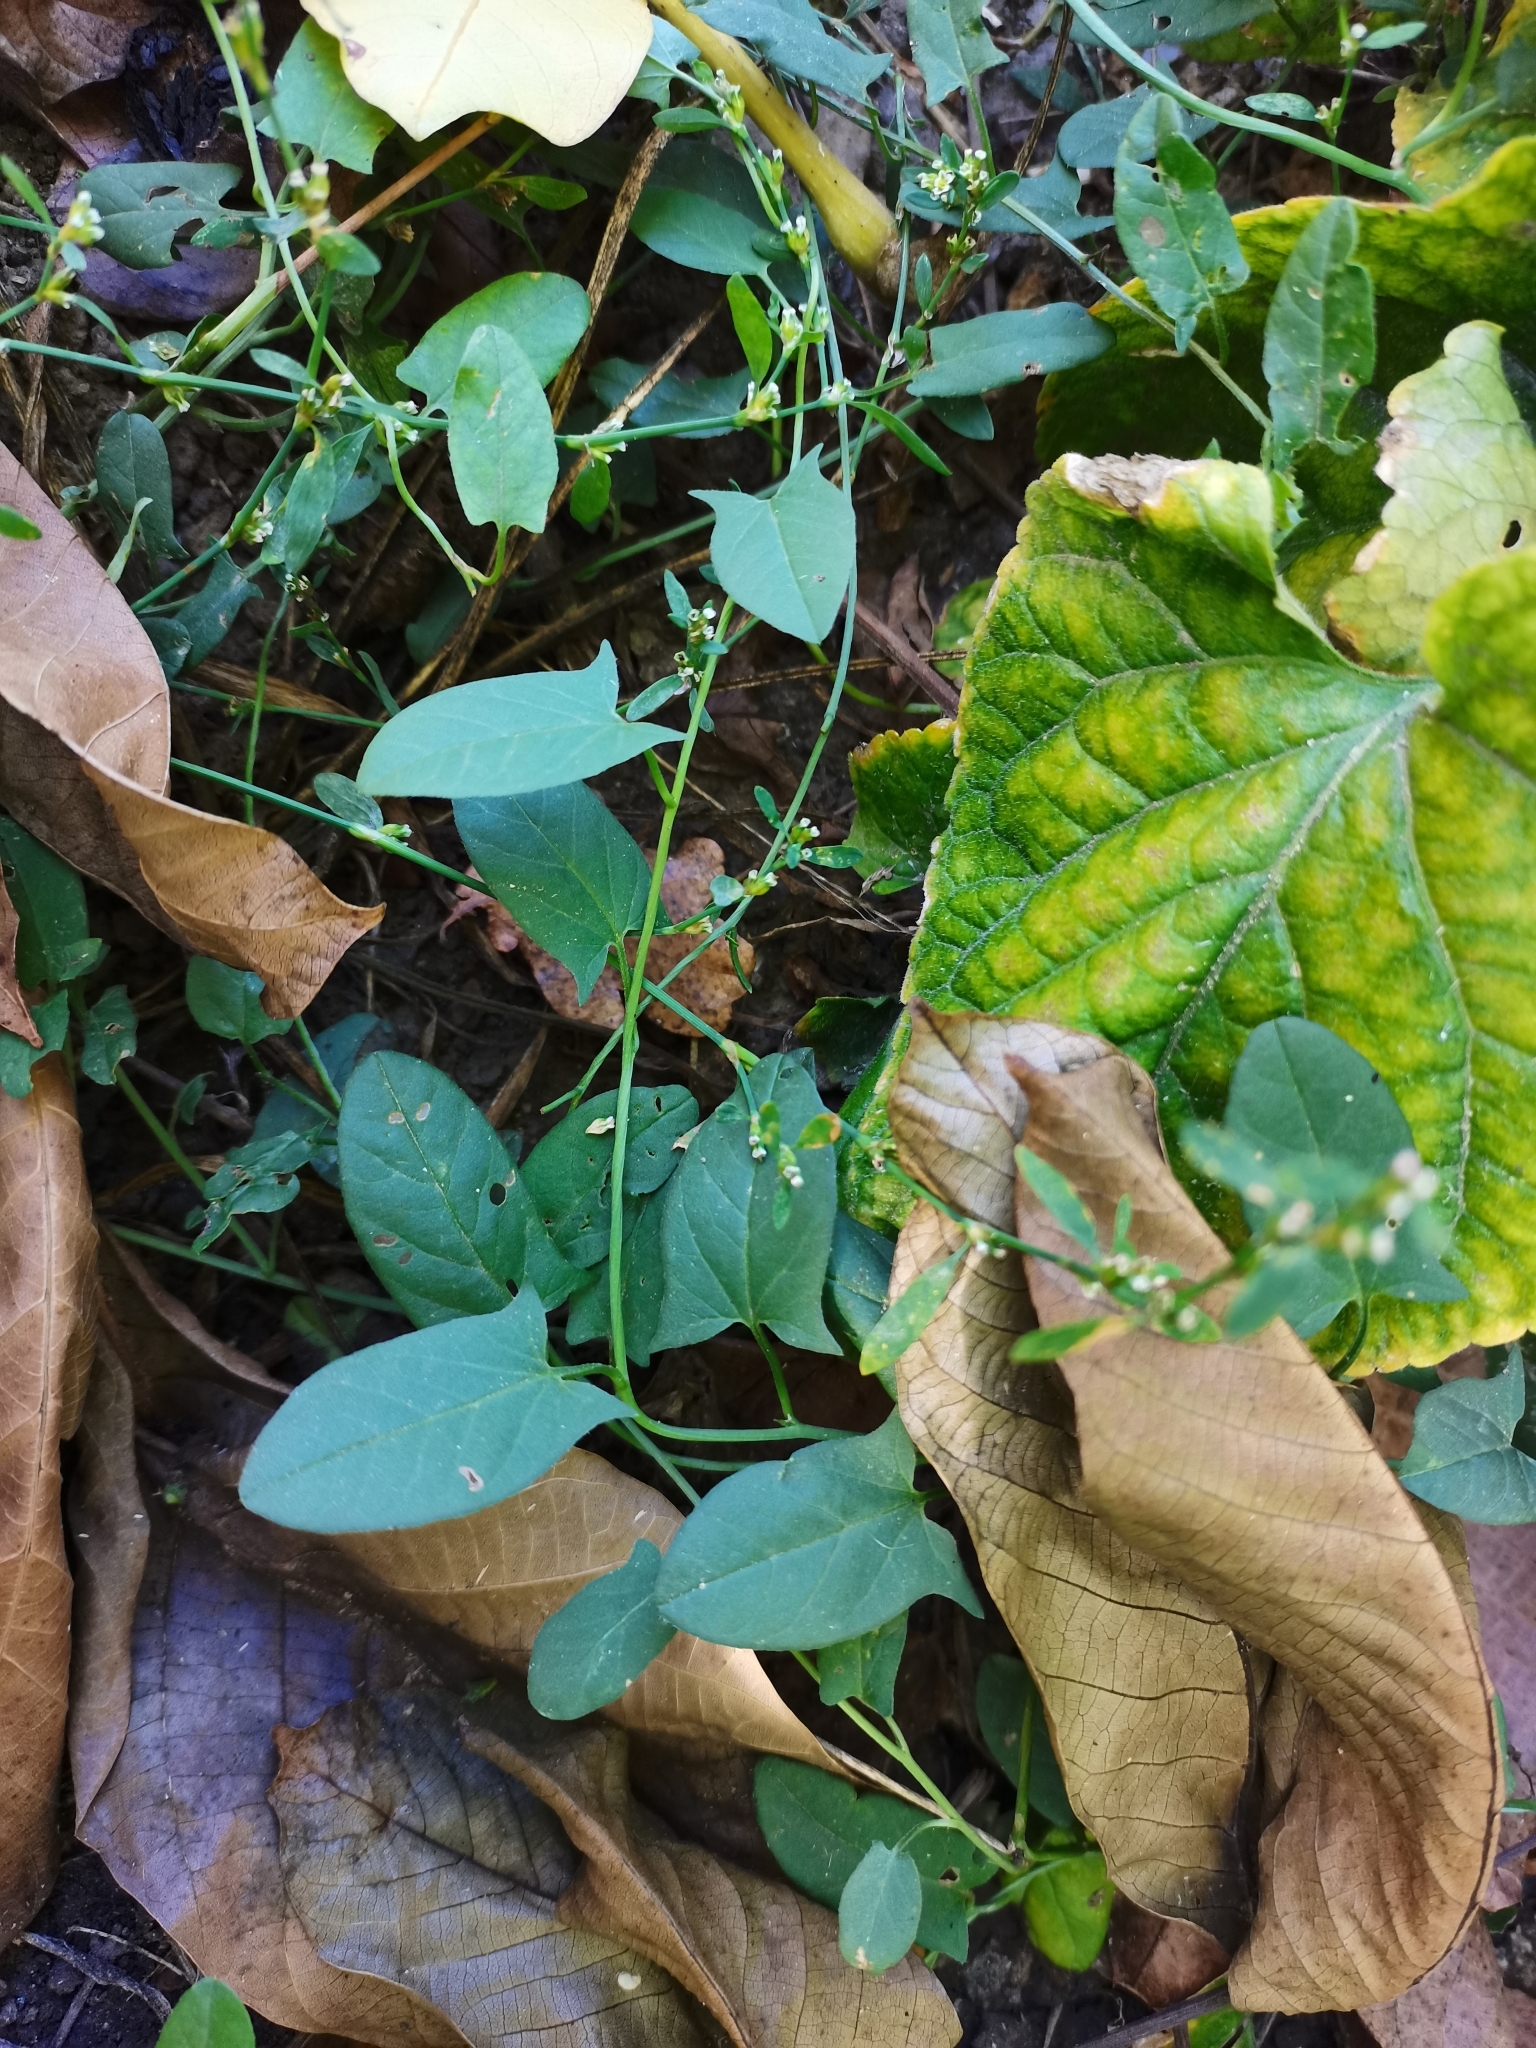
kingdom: Plantae
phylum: Tracheophyta
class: Magnoliopsida
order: Solanales
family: Convolvulaceae
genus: Convolvulus
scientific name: Convolvulus arvensis
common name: Field bindweed
